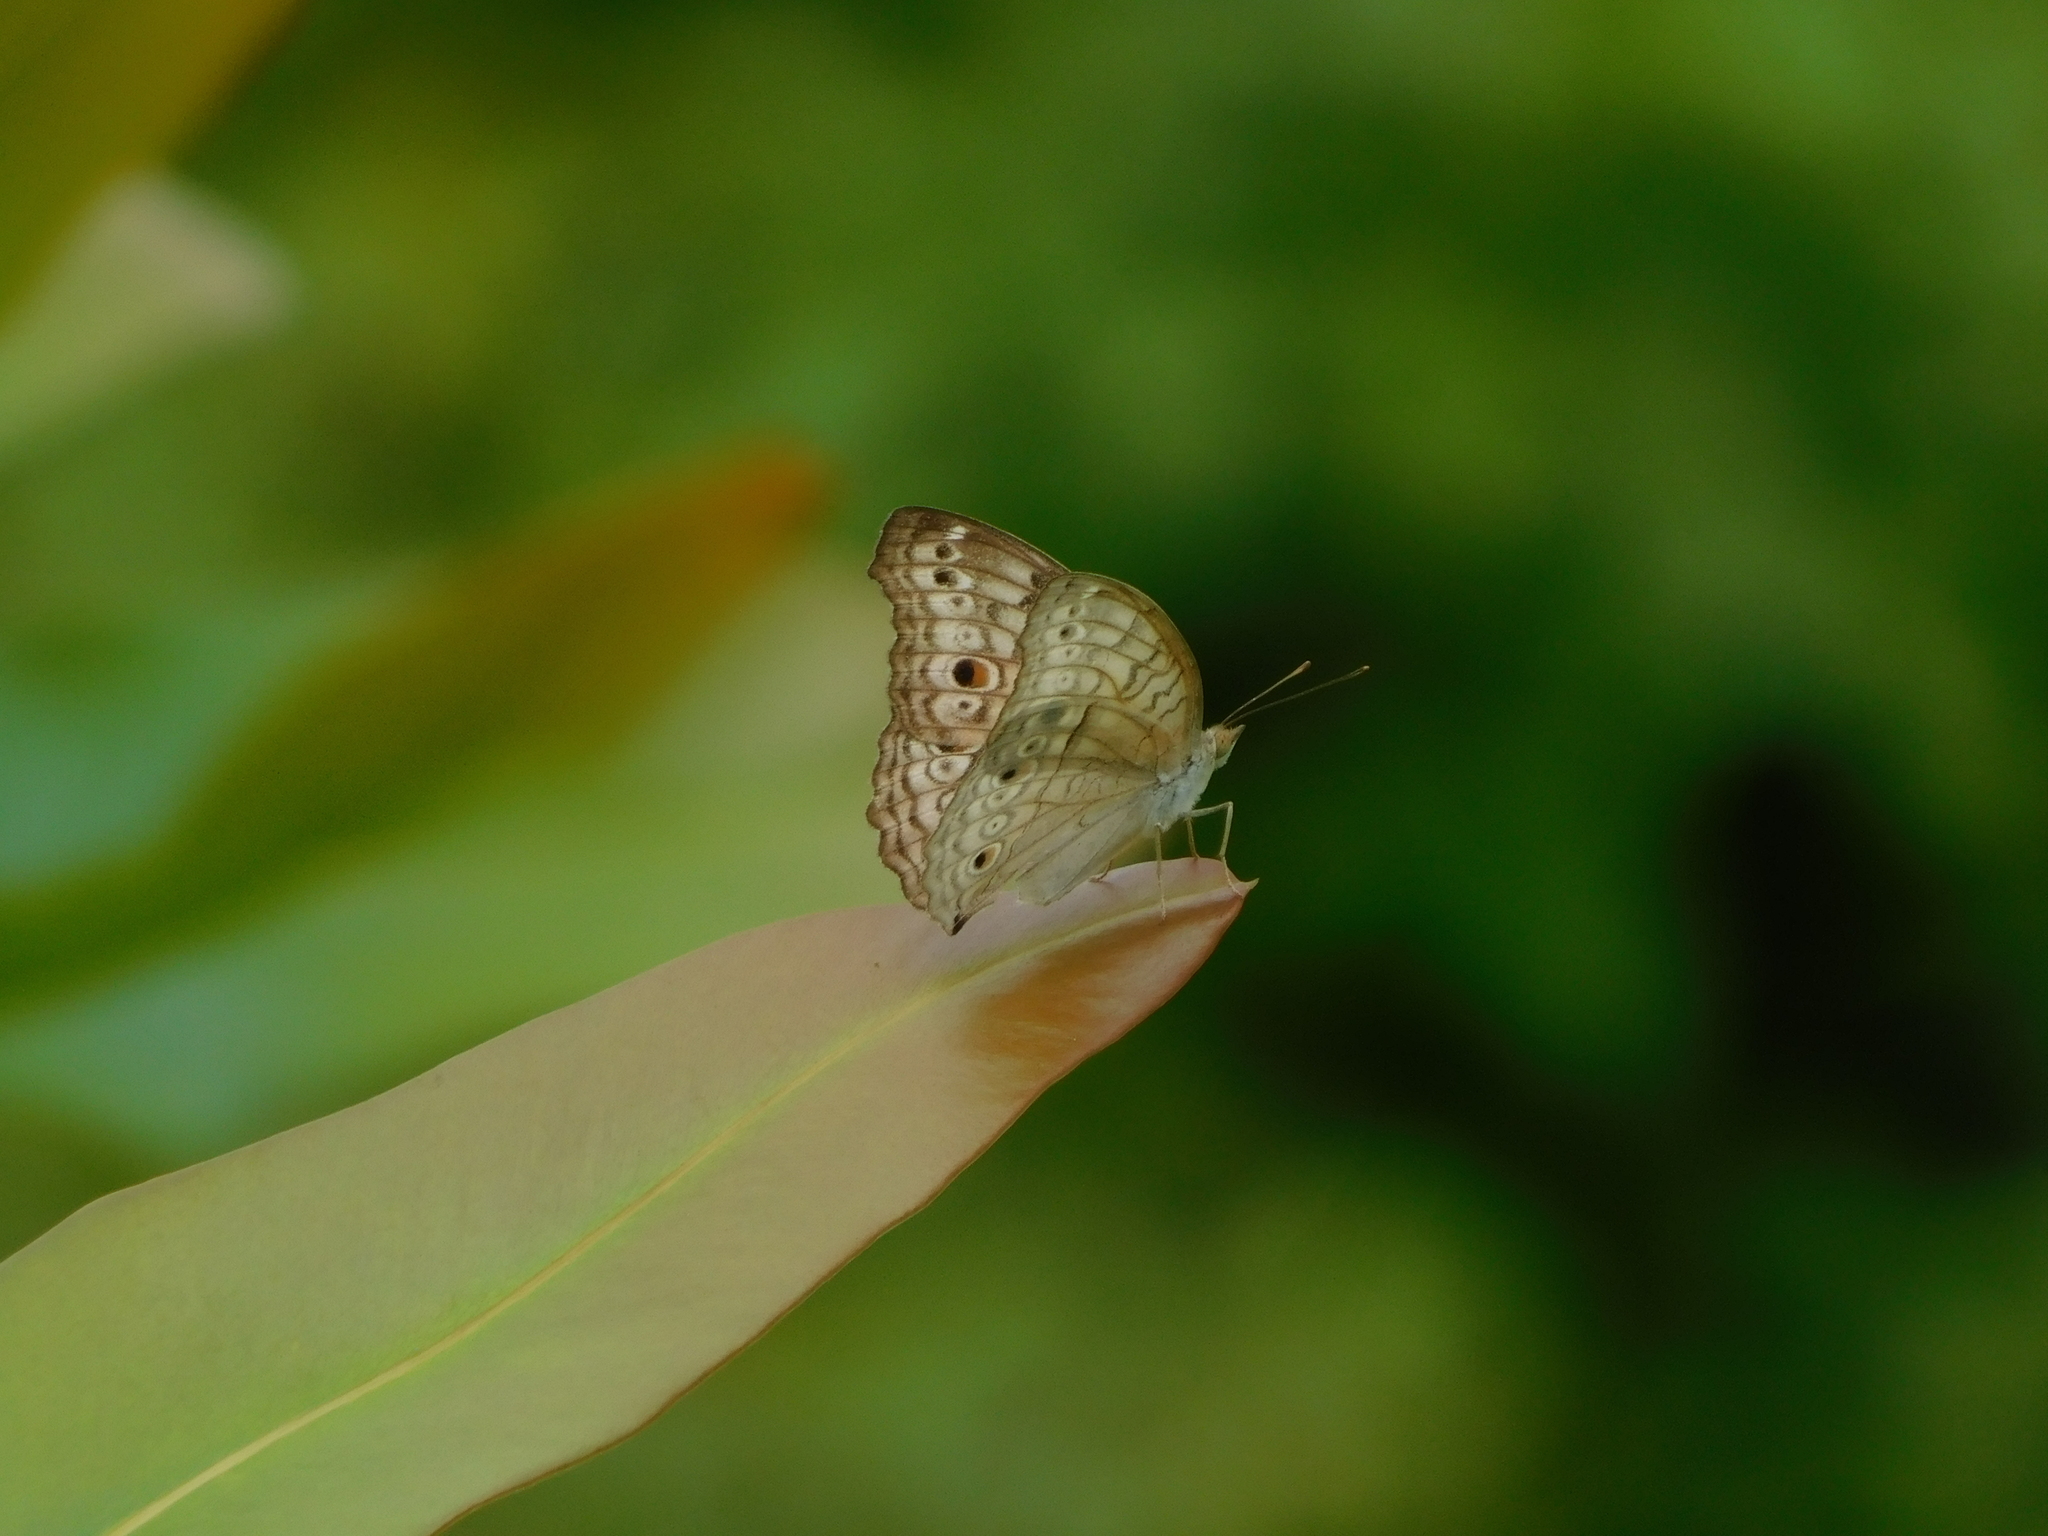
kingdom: Animalia
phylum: Arthropoda
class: Insecta
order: Lepidoptera
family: Nymphalidae
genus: Junonia
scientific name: Junonia atlites
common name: Grey pansy
